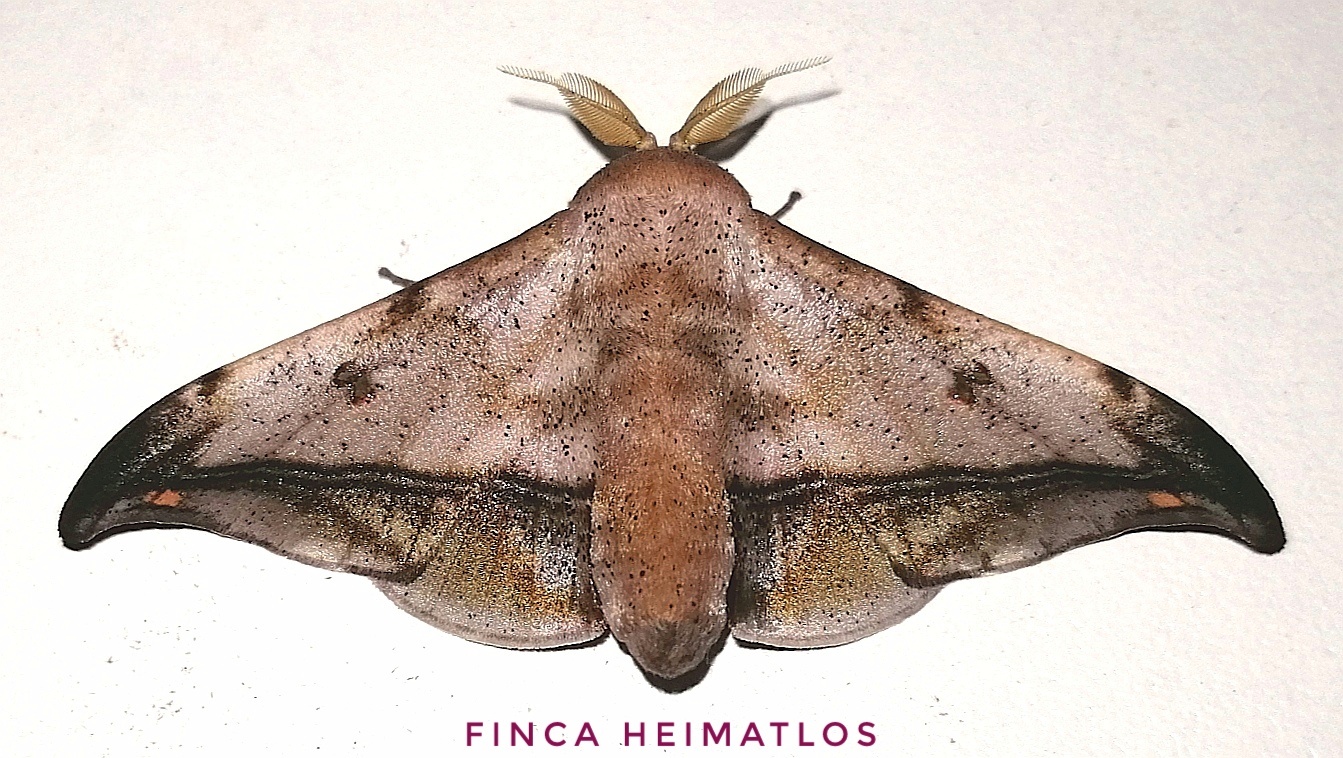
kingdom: Animalia
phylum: Arthropoda
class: Insecta
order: Lepidoptera
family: Mimallonidae
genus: Cicinnus
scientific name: Cicinnus fogia
